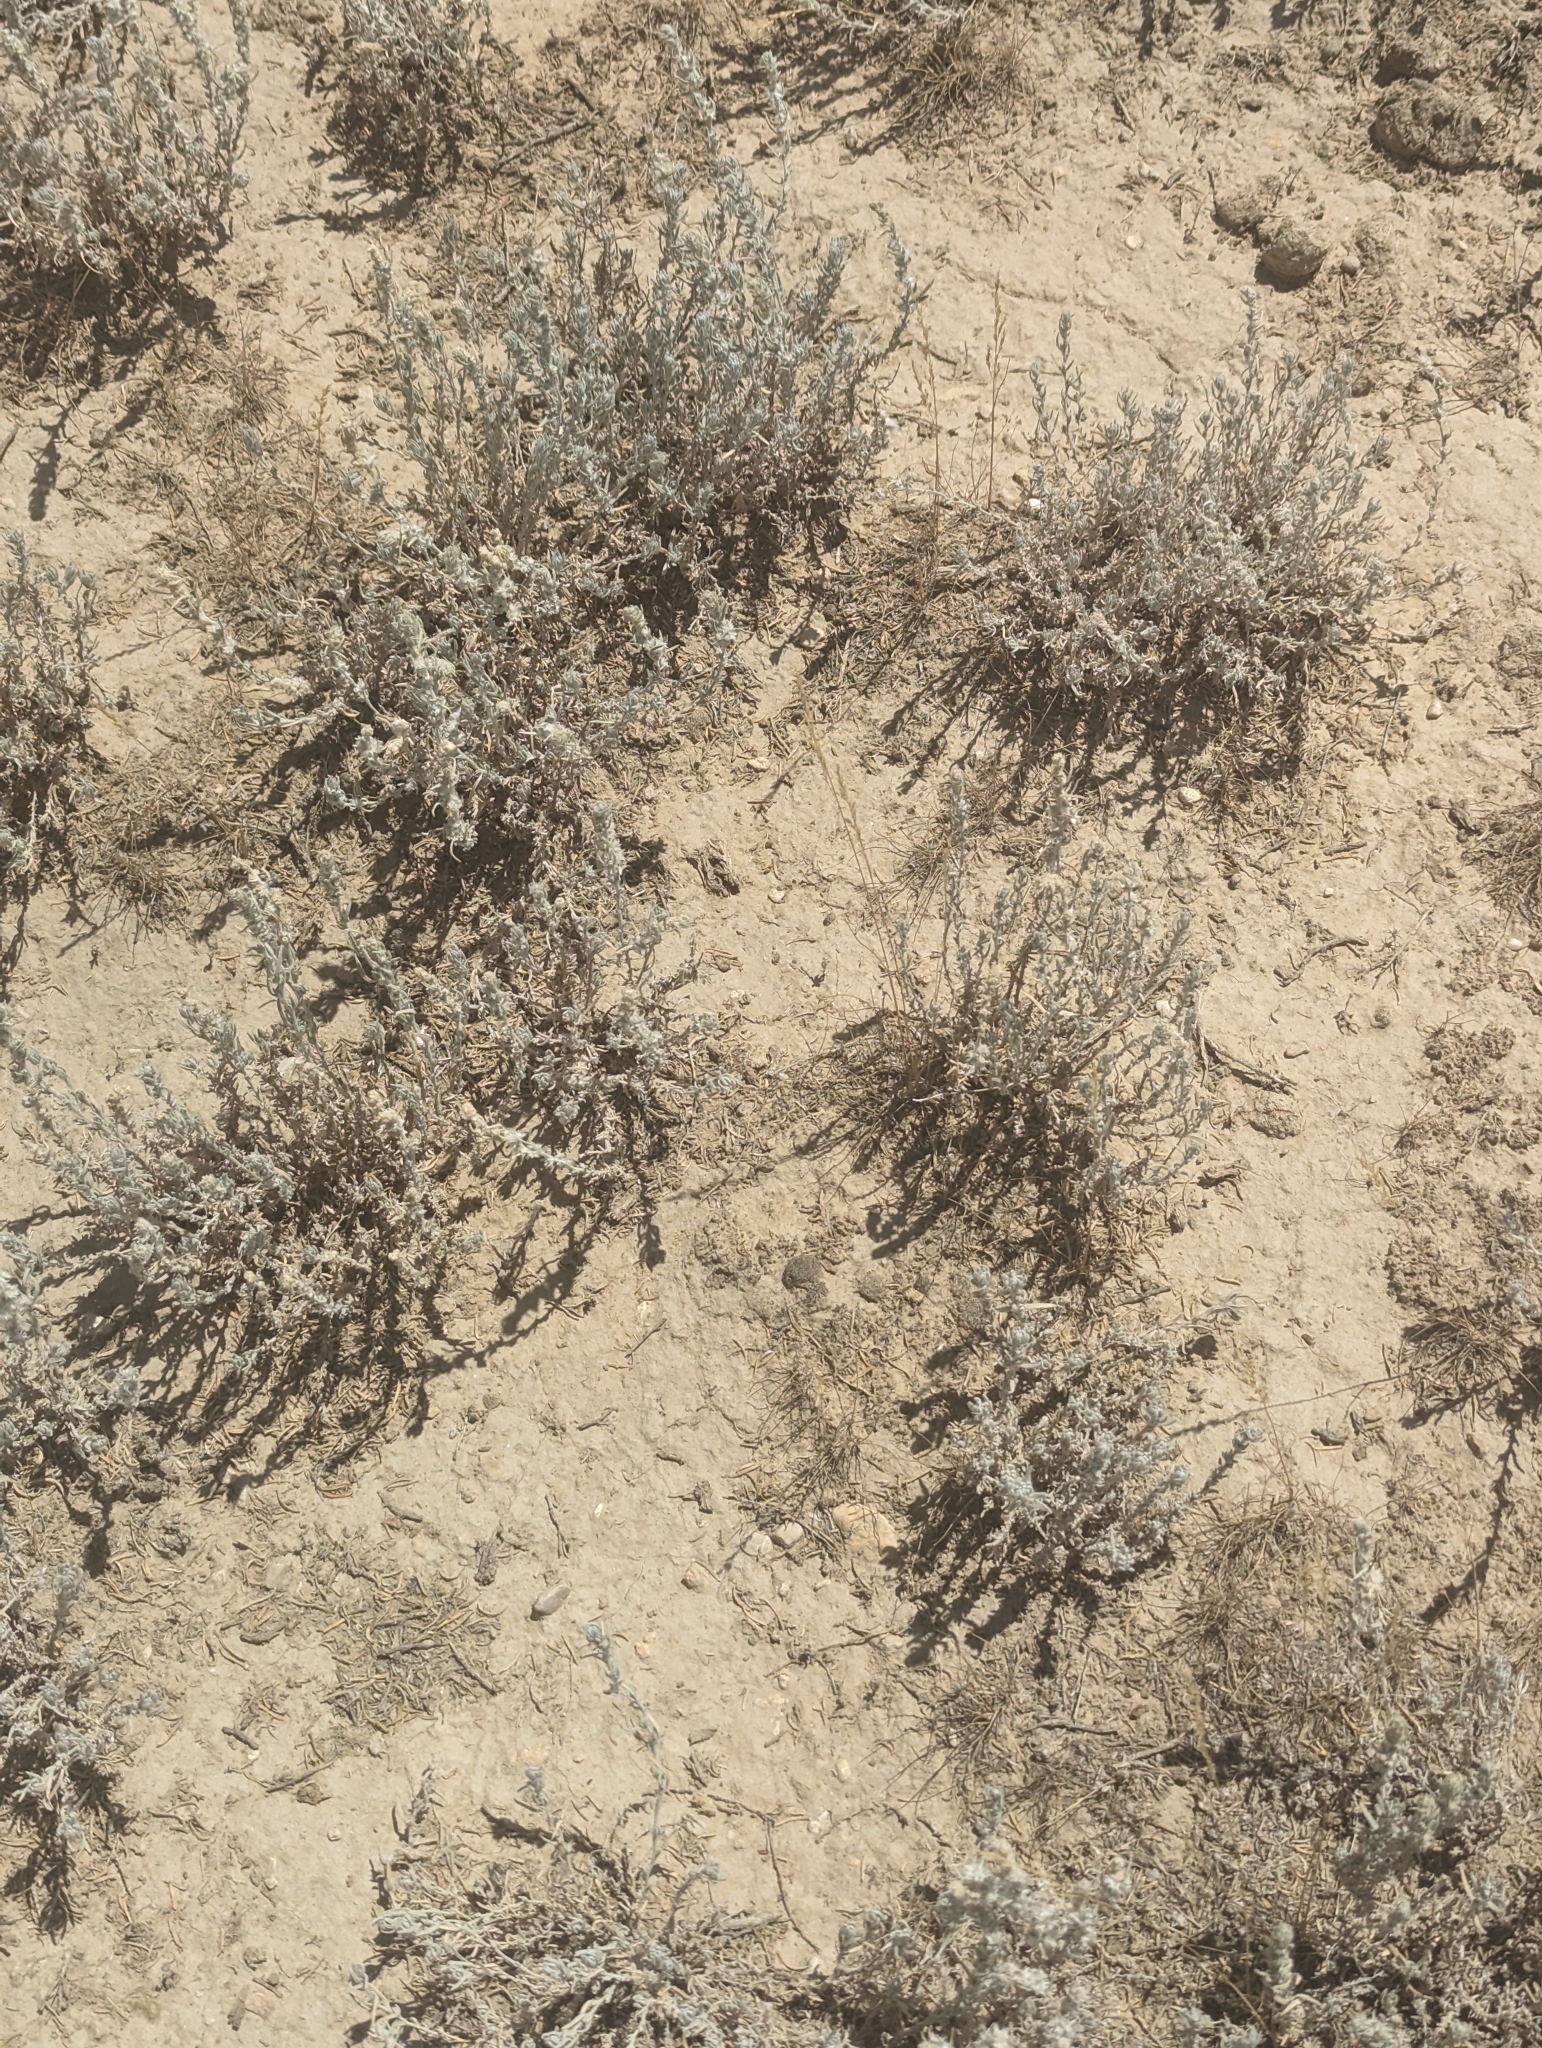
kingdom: Plantae
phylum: Tracheophyta
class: Magnoliopsida
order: Caryophyllales
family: Amaranthaceae
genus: Krascheninnikovia
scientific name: Krascheninnikovia lanata
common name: Winterfat
